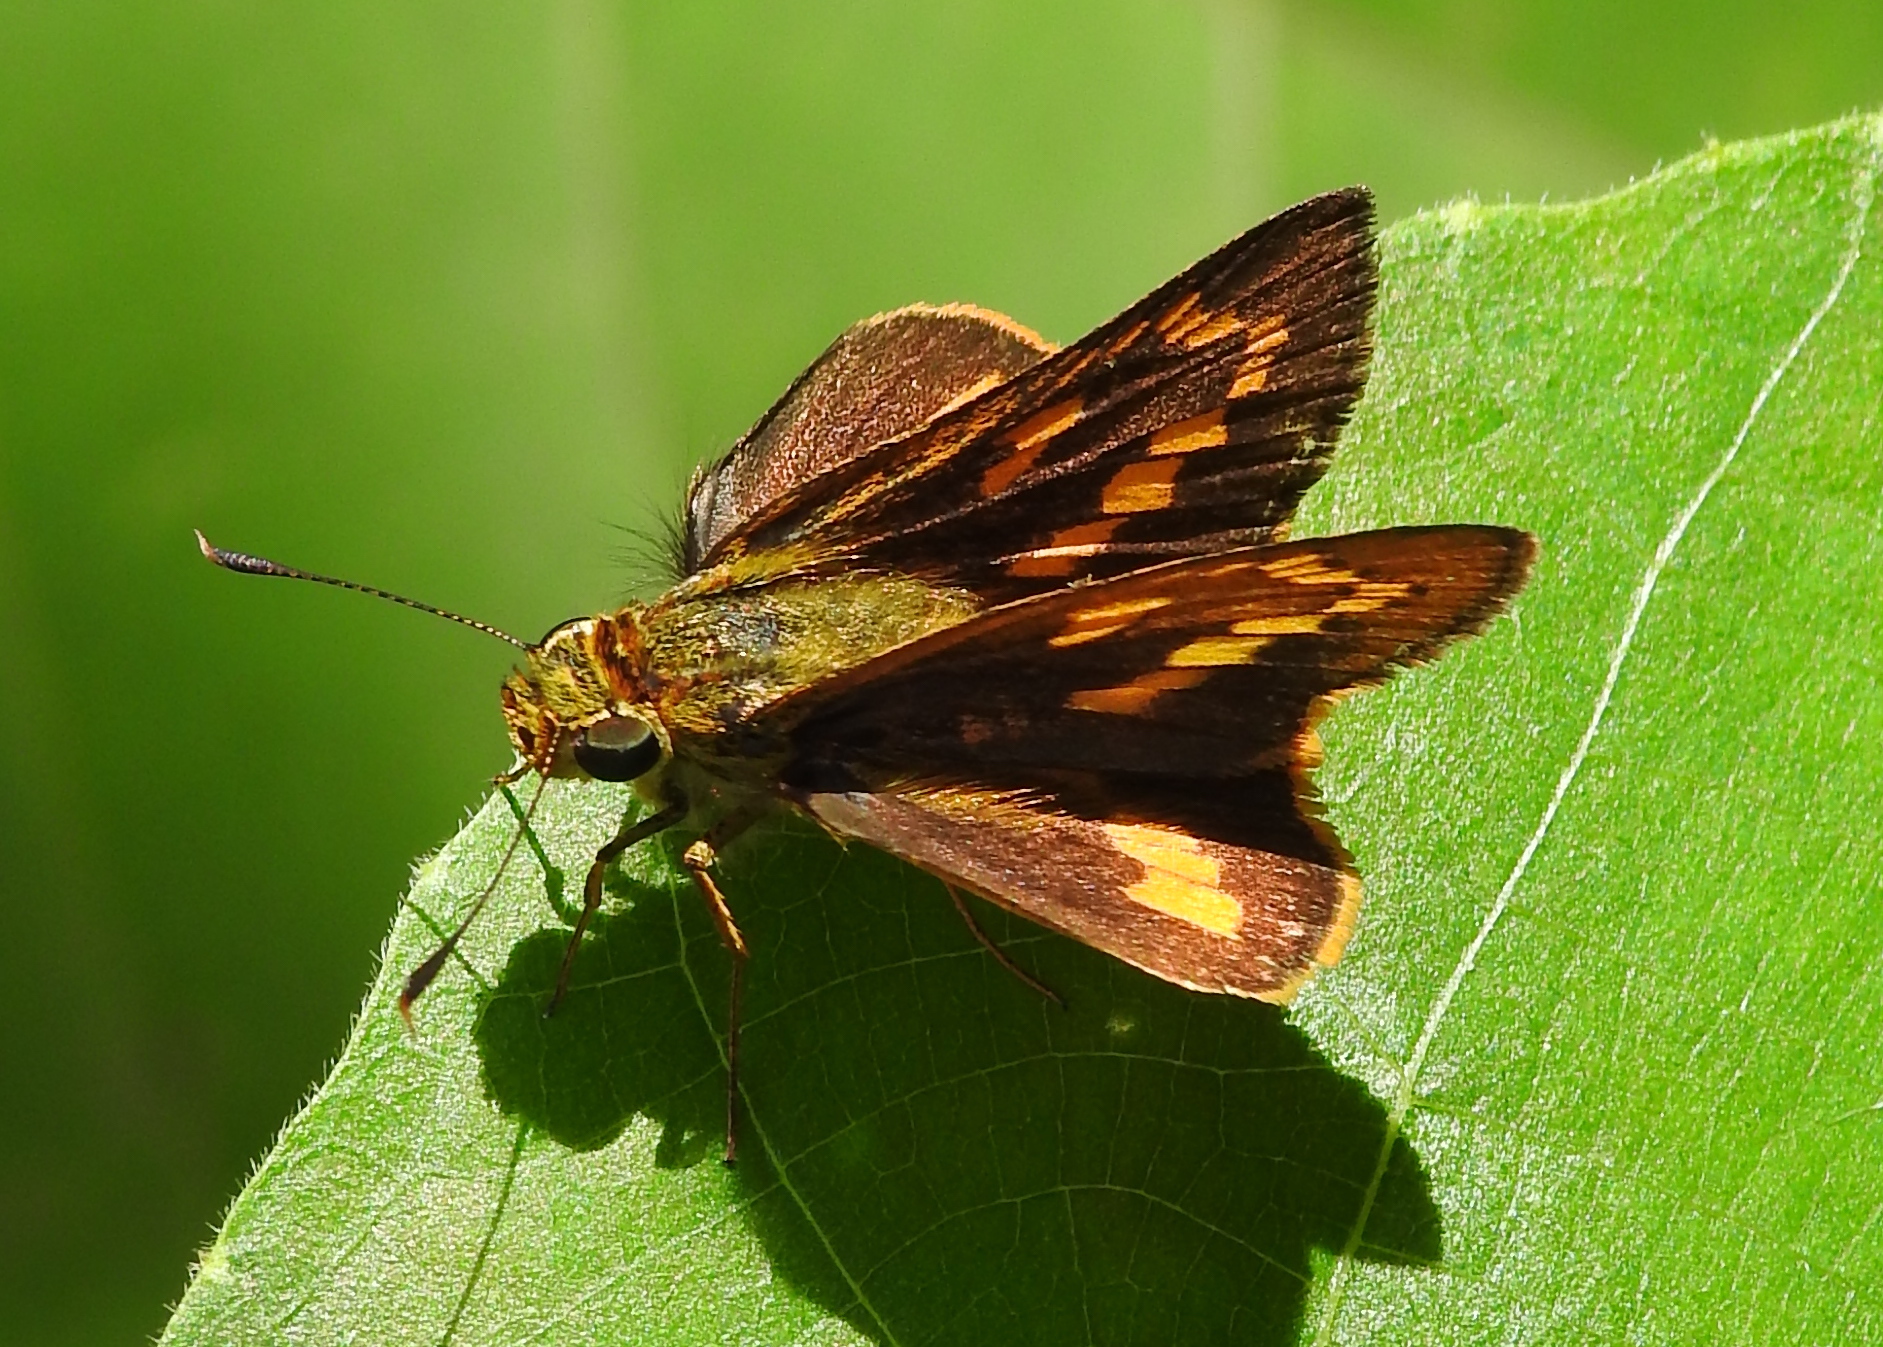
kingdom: Animalia
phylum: Arthropoda
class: Insecta
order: Lepidoptera
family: Hesperiidae
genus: Telicota
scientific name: Telicota linna
